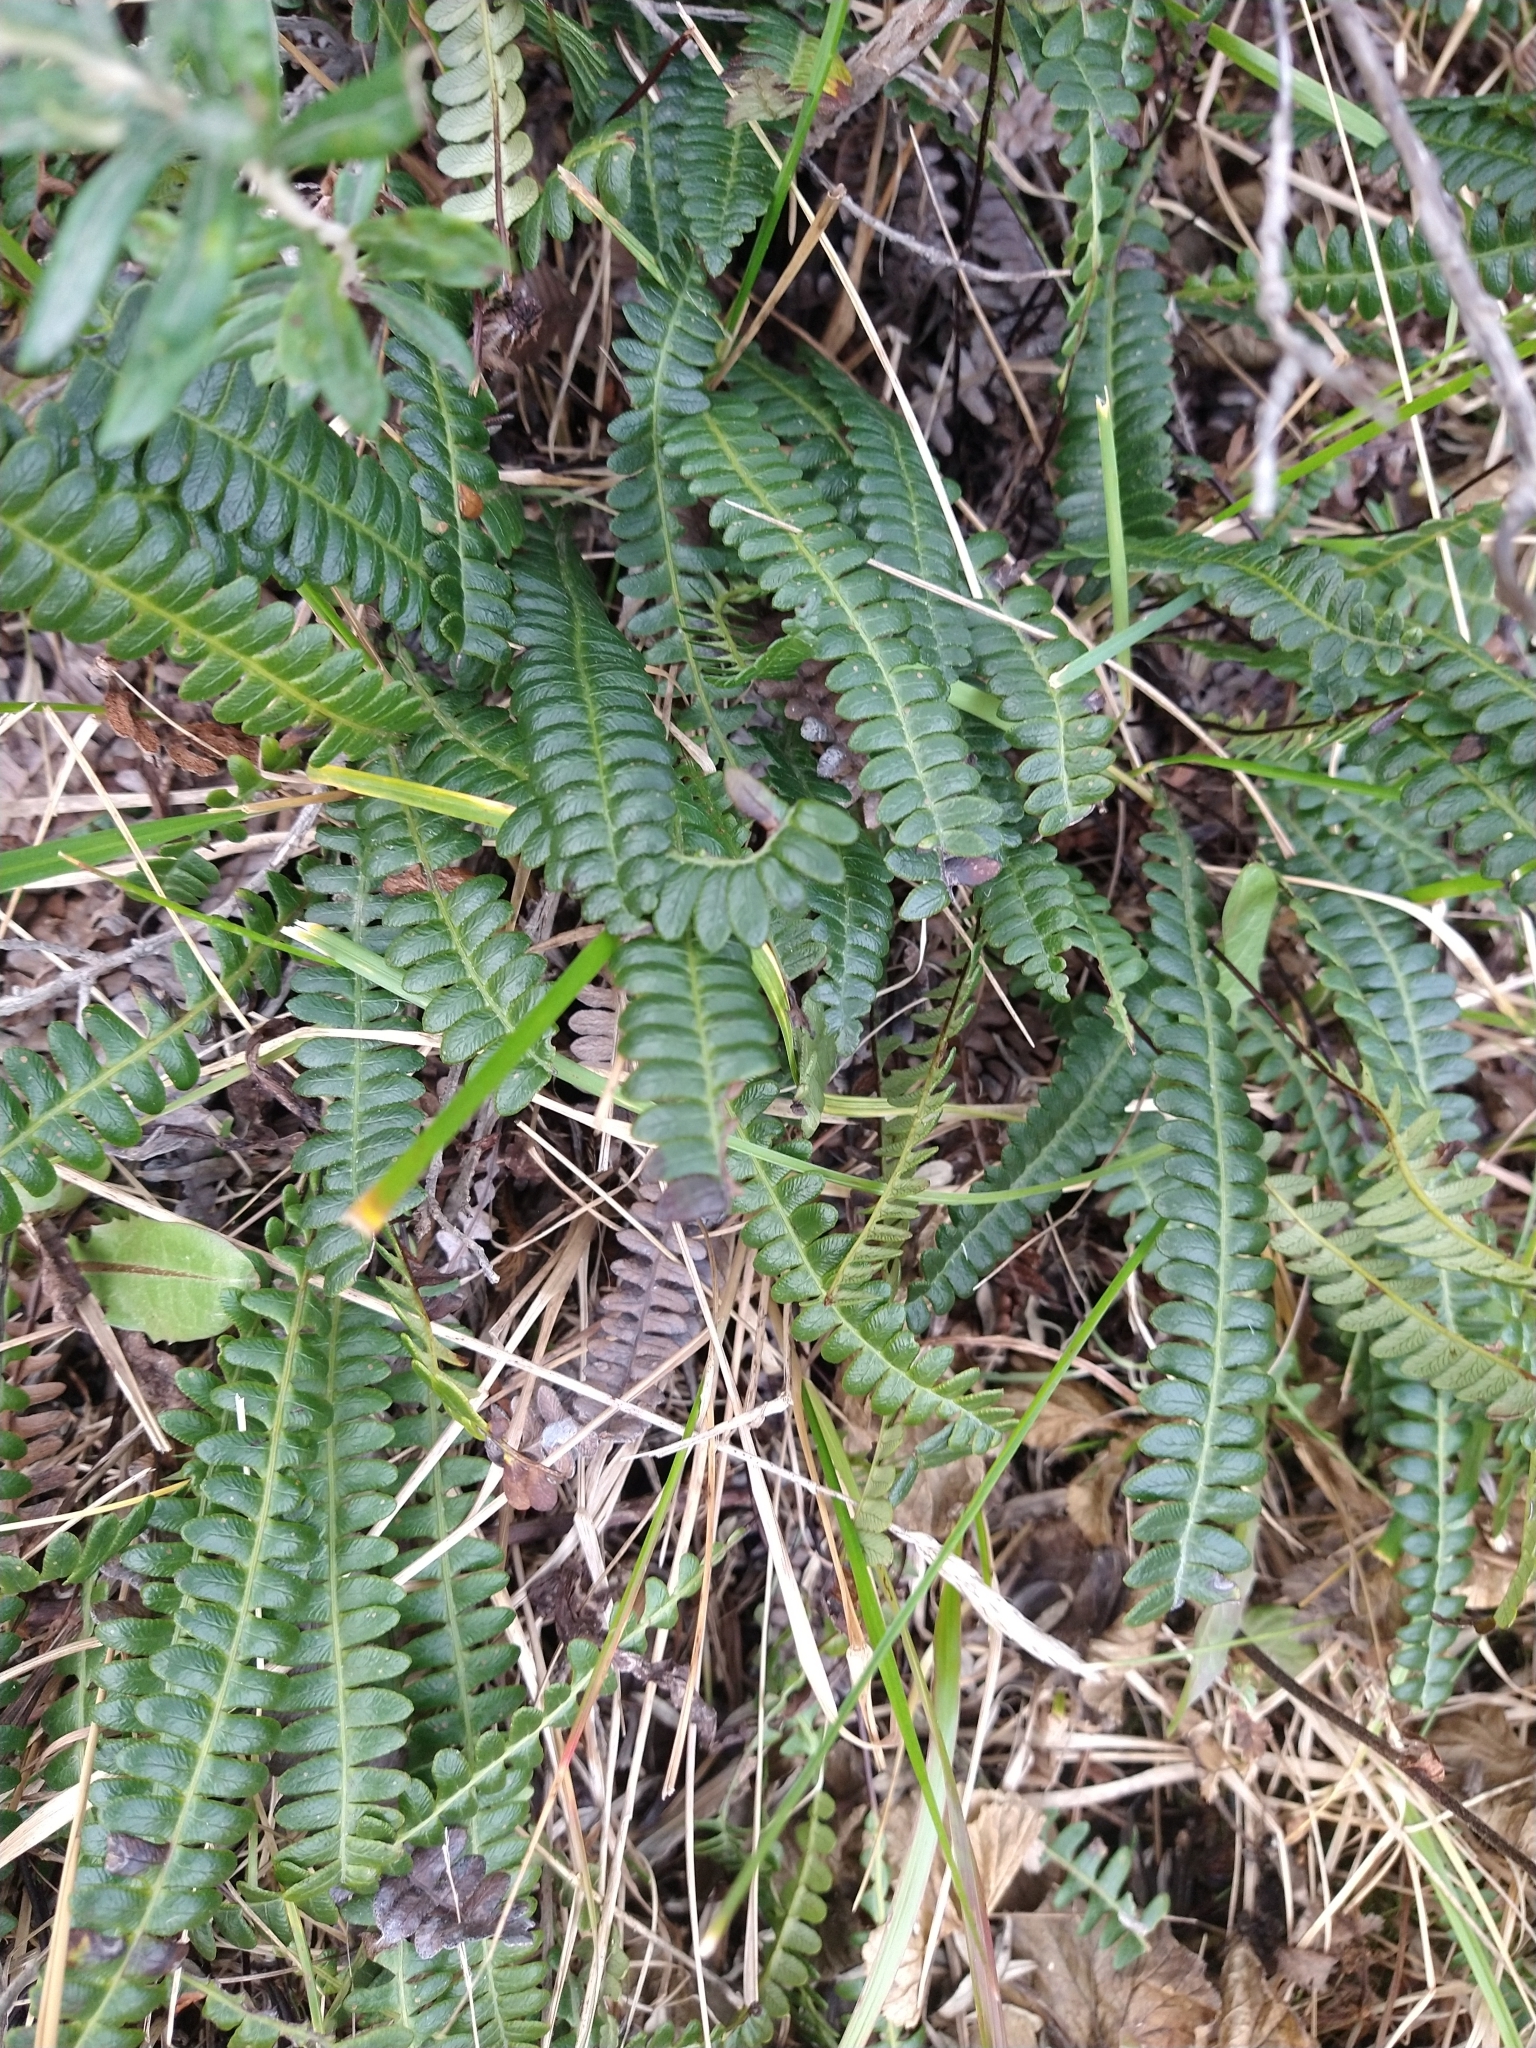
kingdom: Plantae
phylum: Tracheophyta
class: Polypodiopsida
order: Polypodiales
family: Blechnaceae
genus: Austroblechnum
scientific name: Austroblechnum penna-marina
